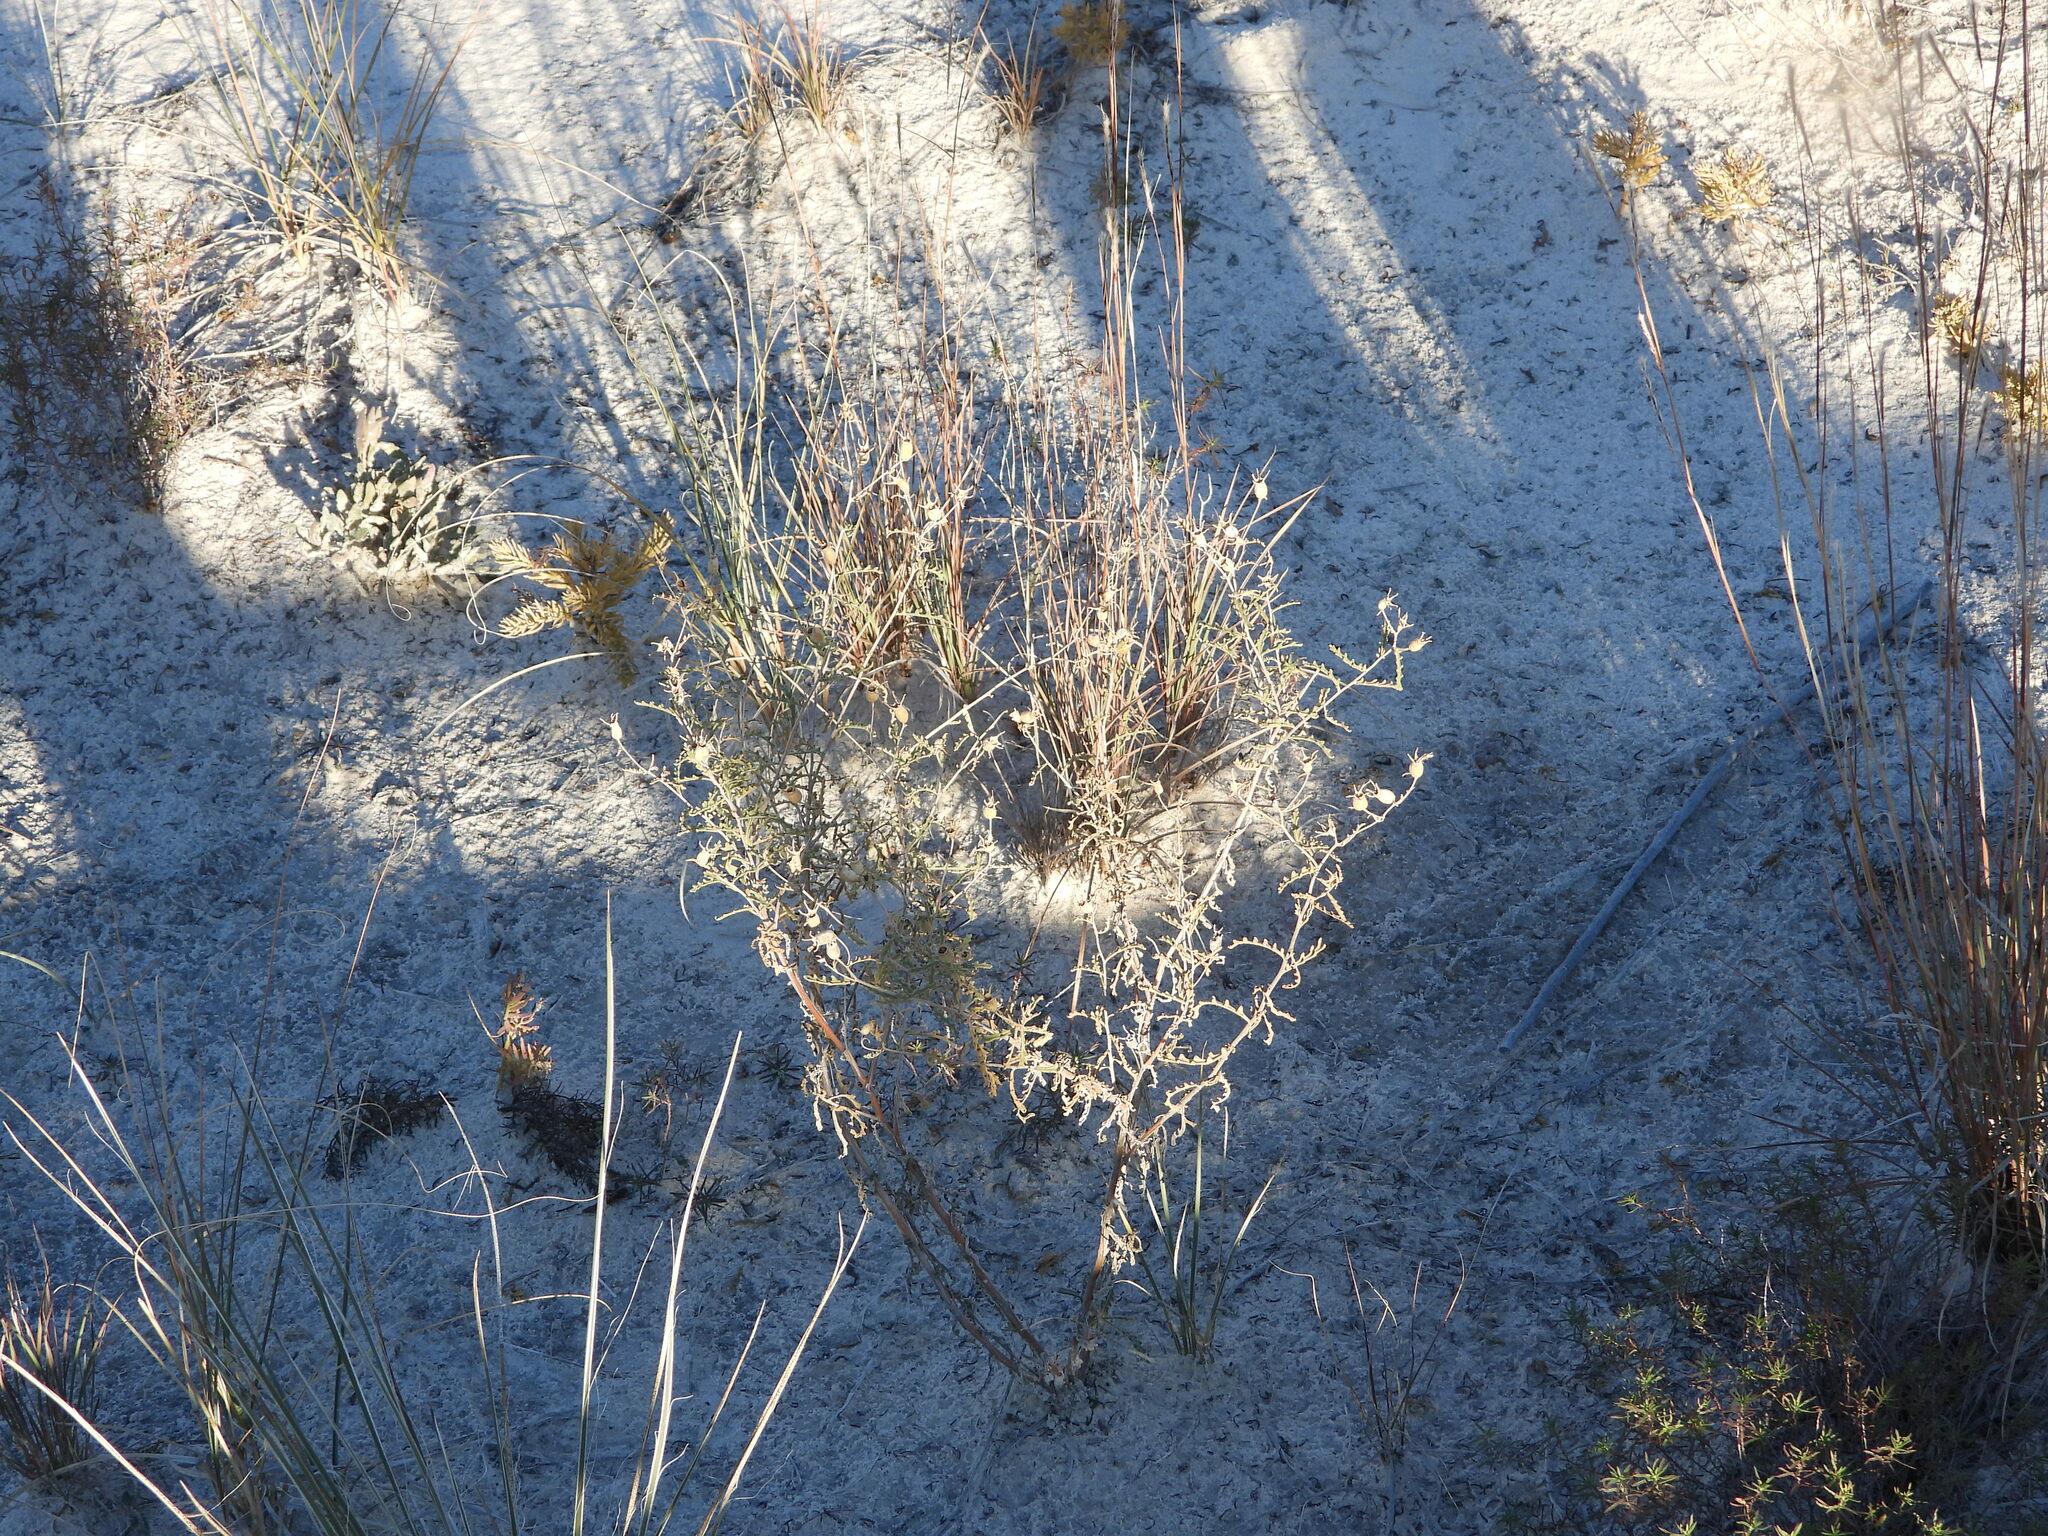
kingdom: Plantae
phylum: Tracheophyta
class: Magnoliopsida
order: Cornales
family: Loasaceae
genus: Mentzelia
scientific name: Mentzelia procera
